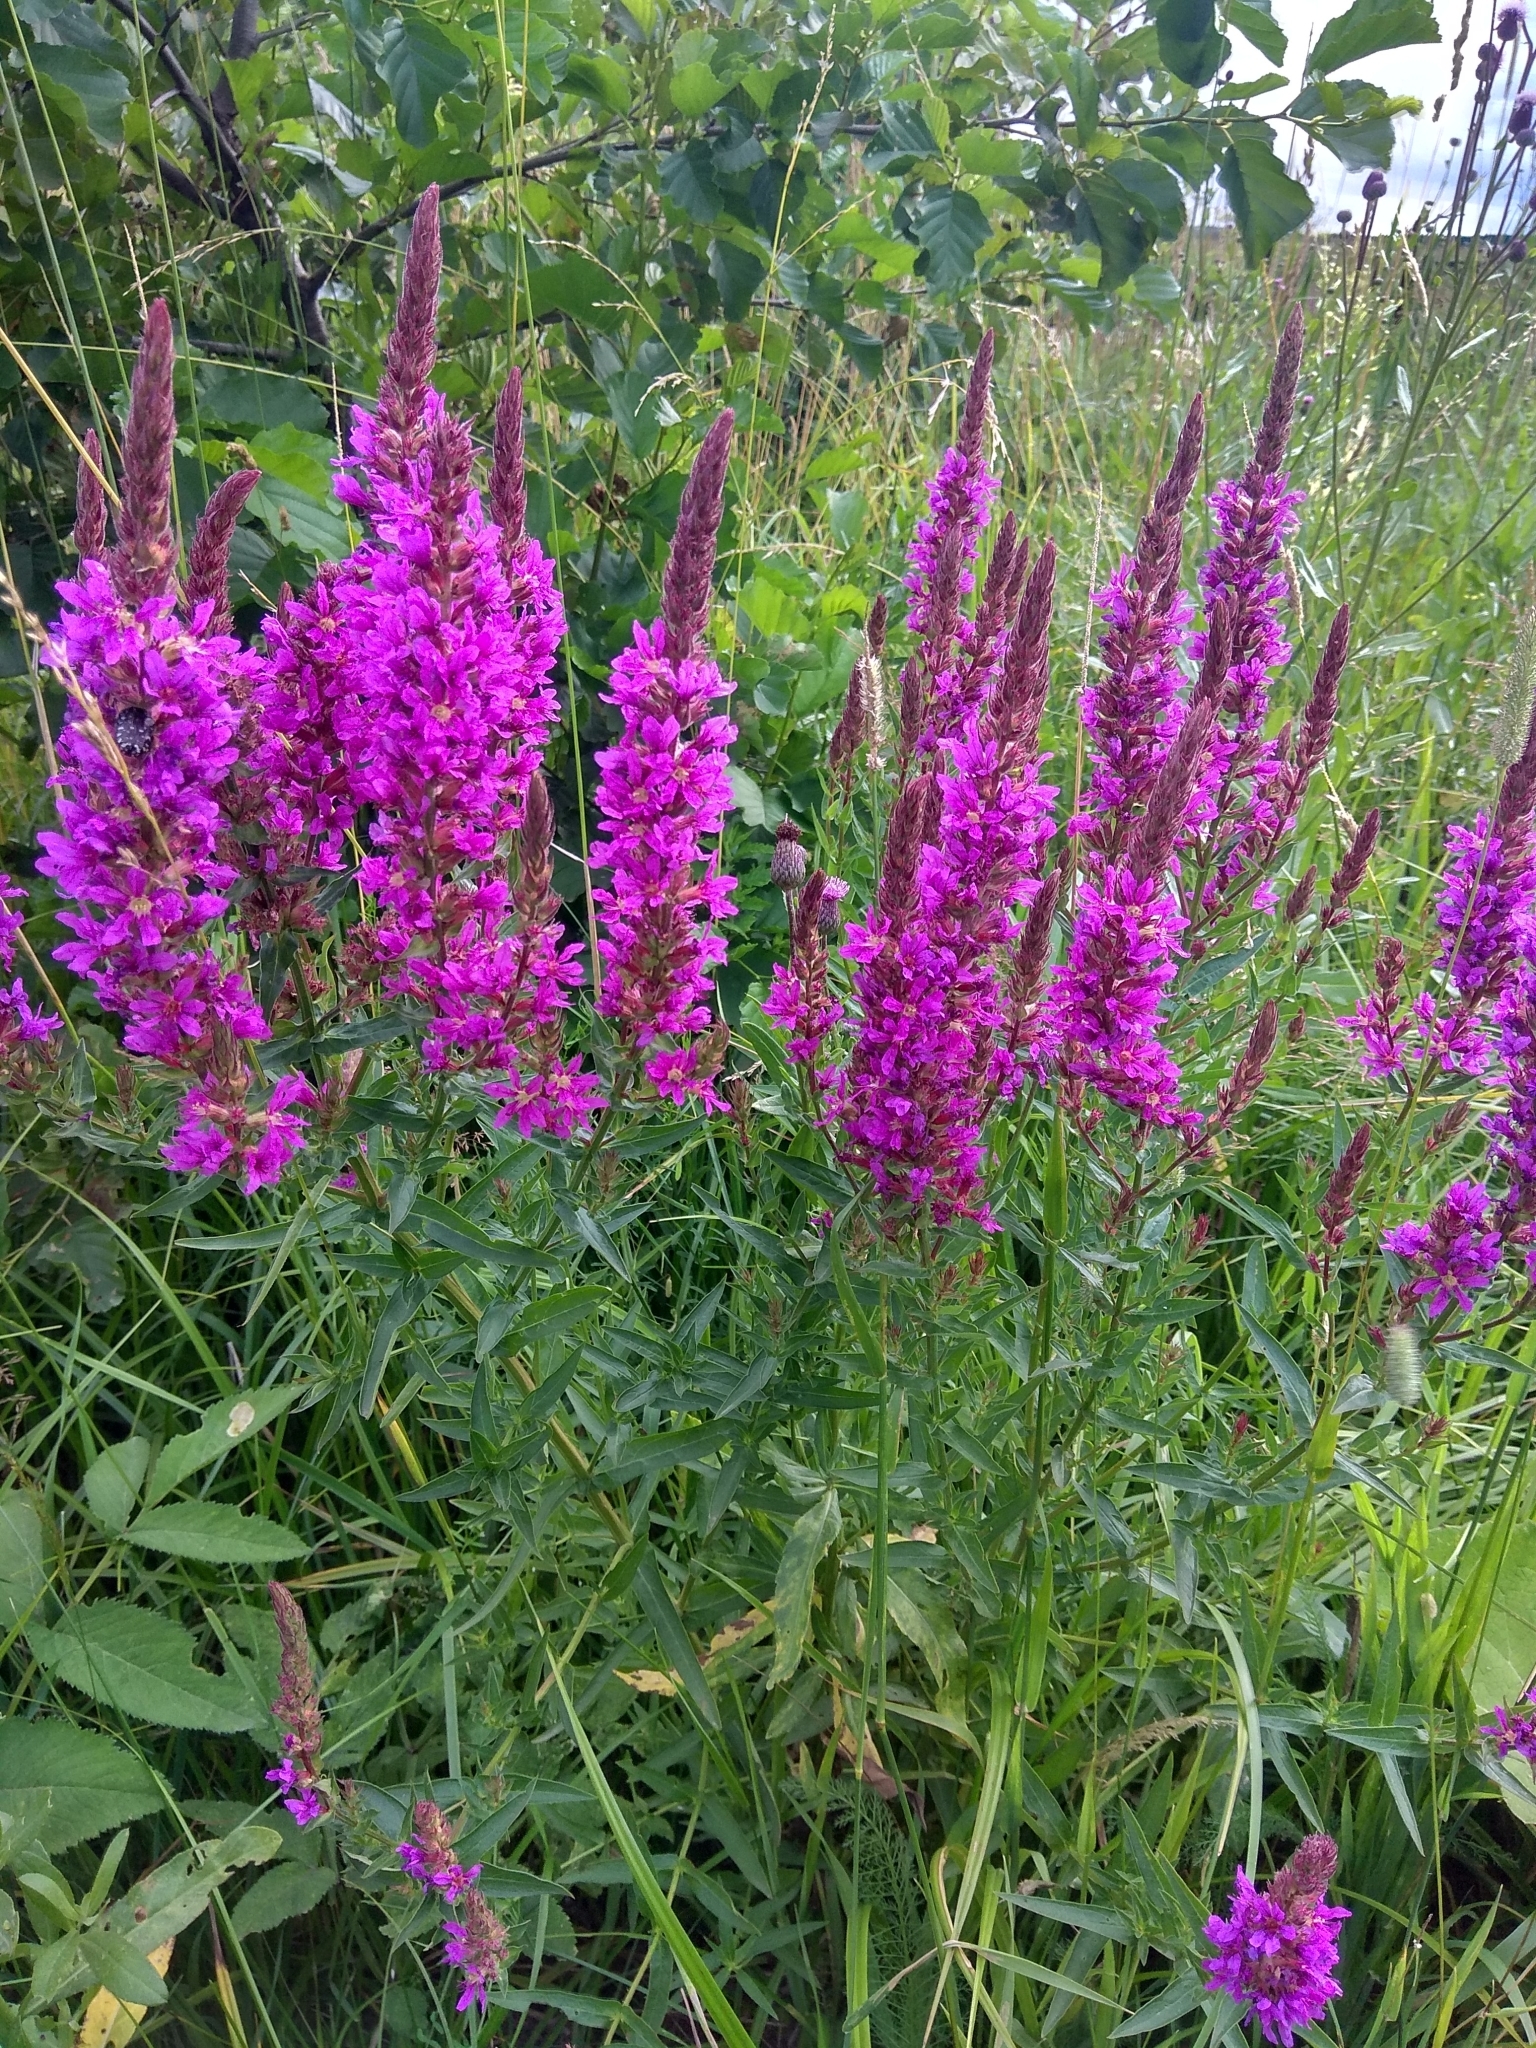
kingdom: Plantae
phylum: Tracheophyta
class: Magnoliopsida
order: Myrtales
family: Lythraceae
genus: Lythrum
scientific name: Lythrum salicaria
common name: Purple loosestrife
